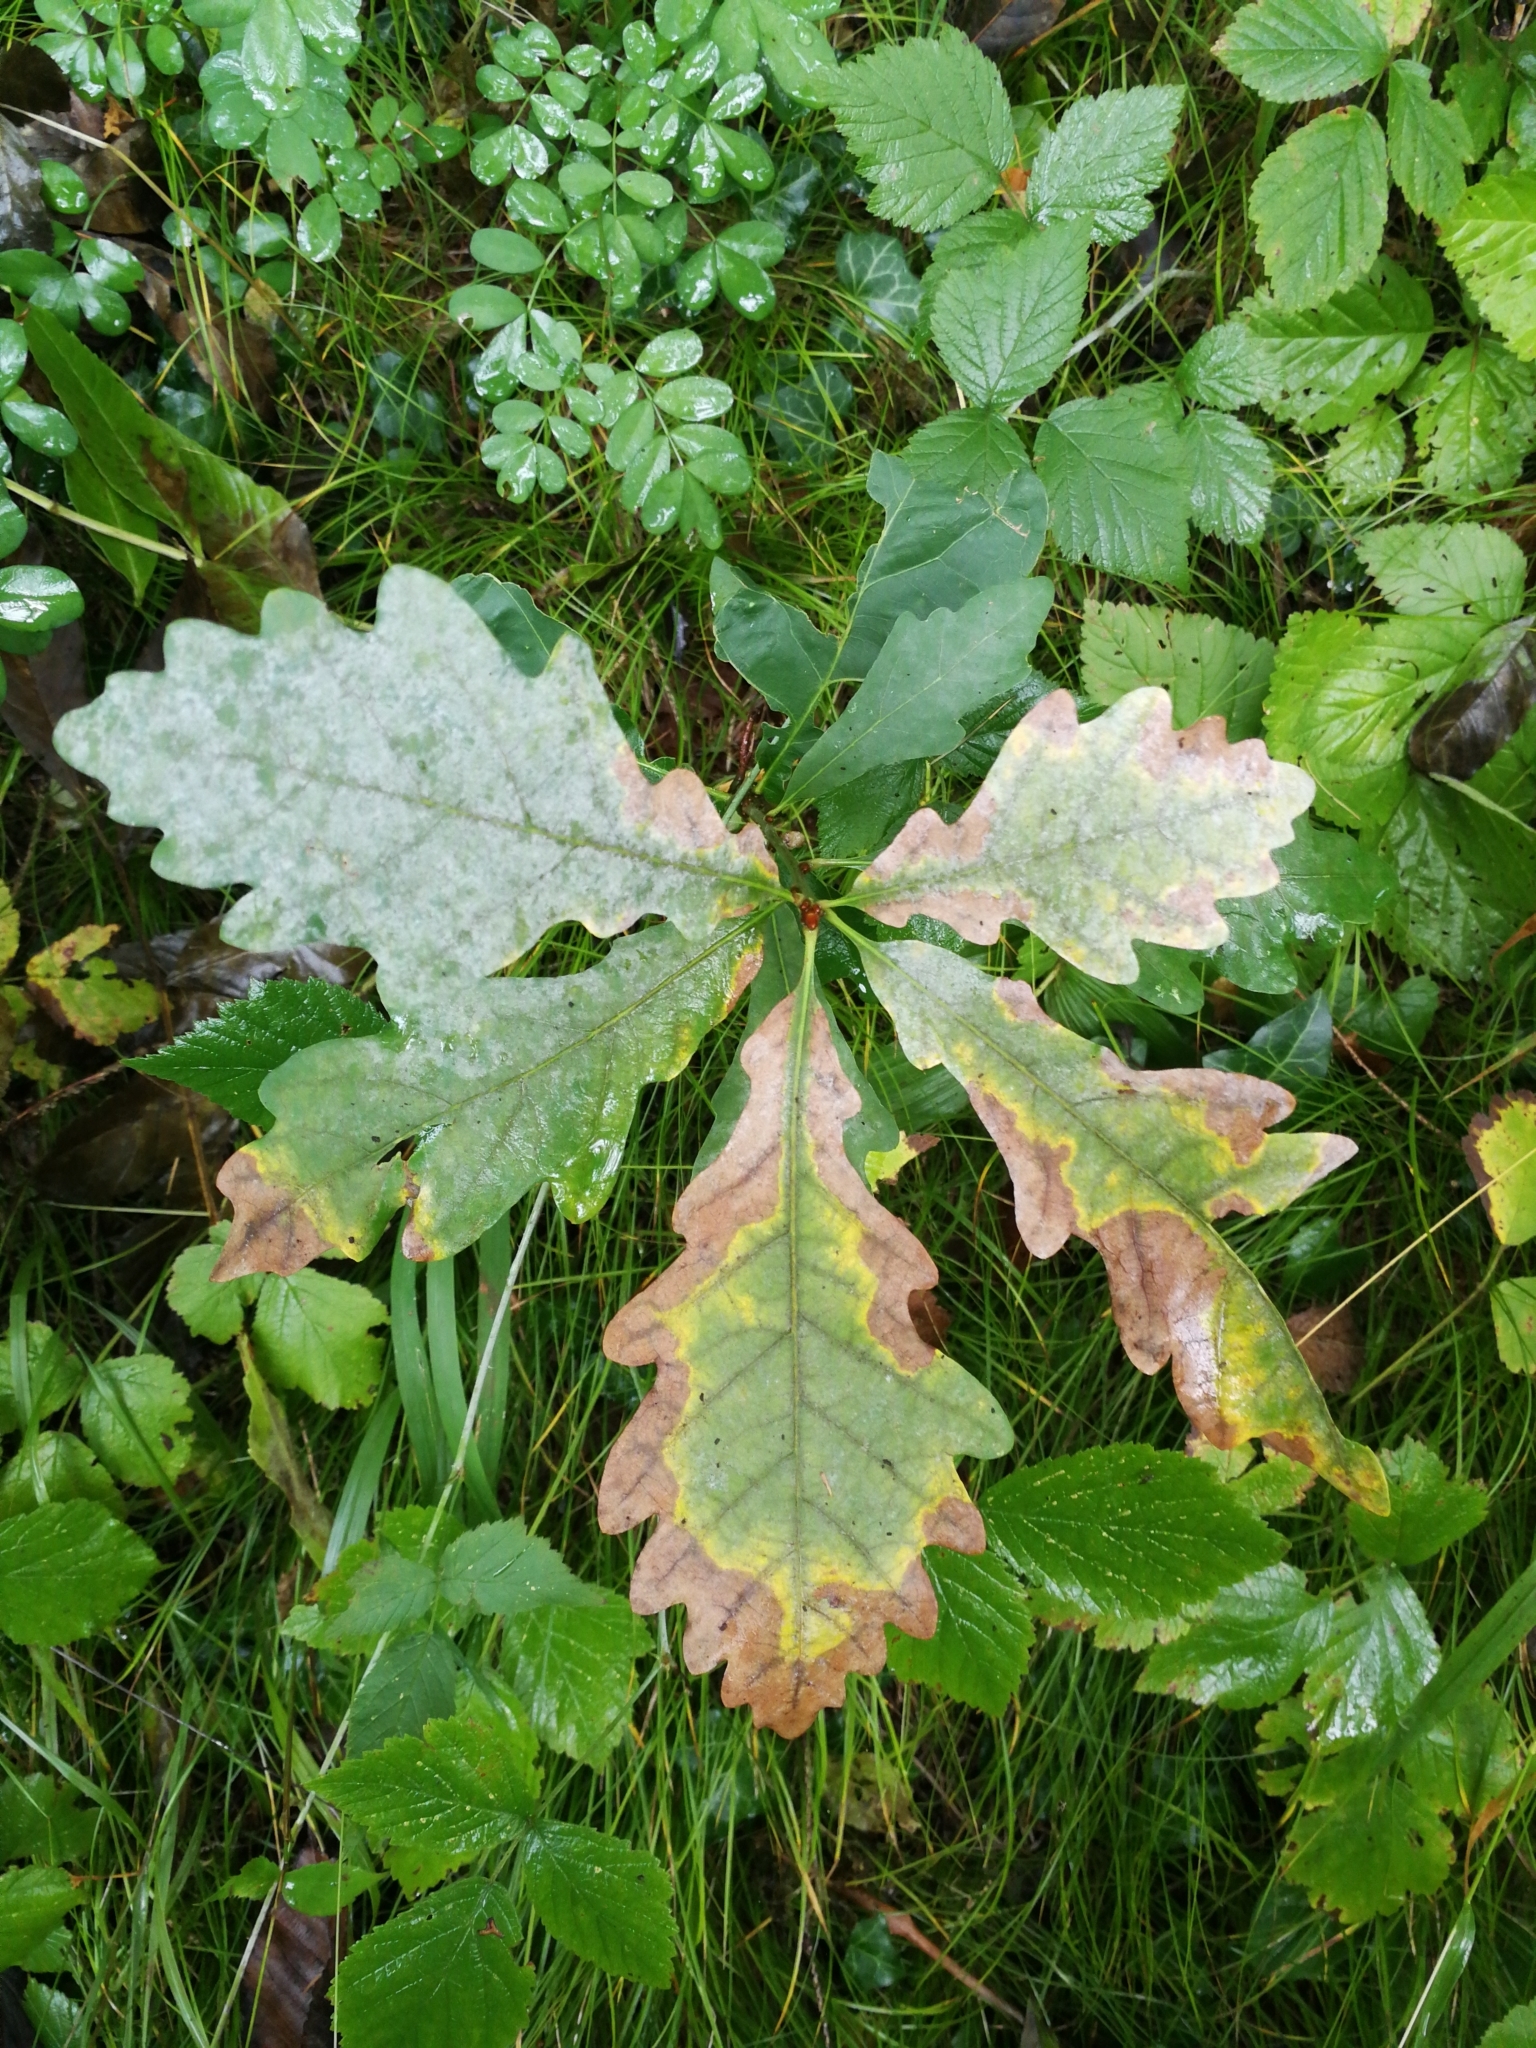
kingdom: Plantae
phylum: Tracheophyta
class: Magnoliopsida
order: Fagales
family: Fagaceae
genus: Quercus
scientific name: Quercus robur
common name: Pedunculate oak
